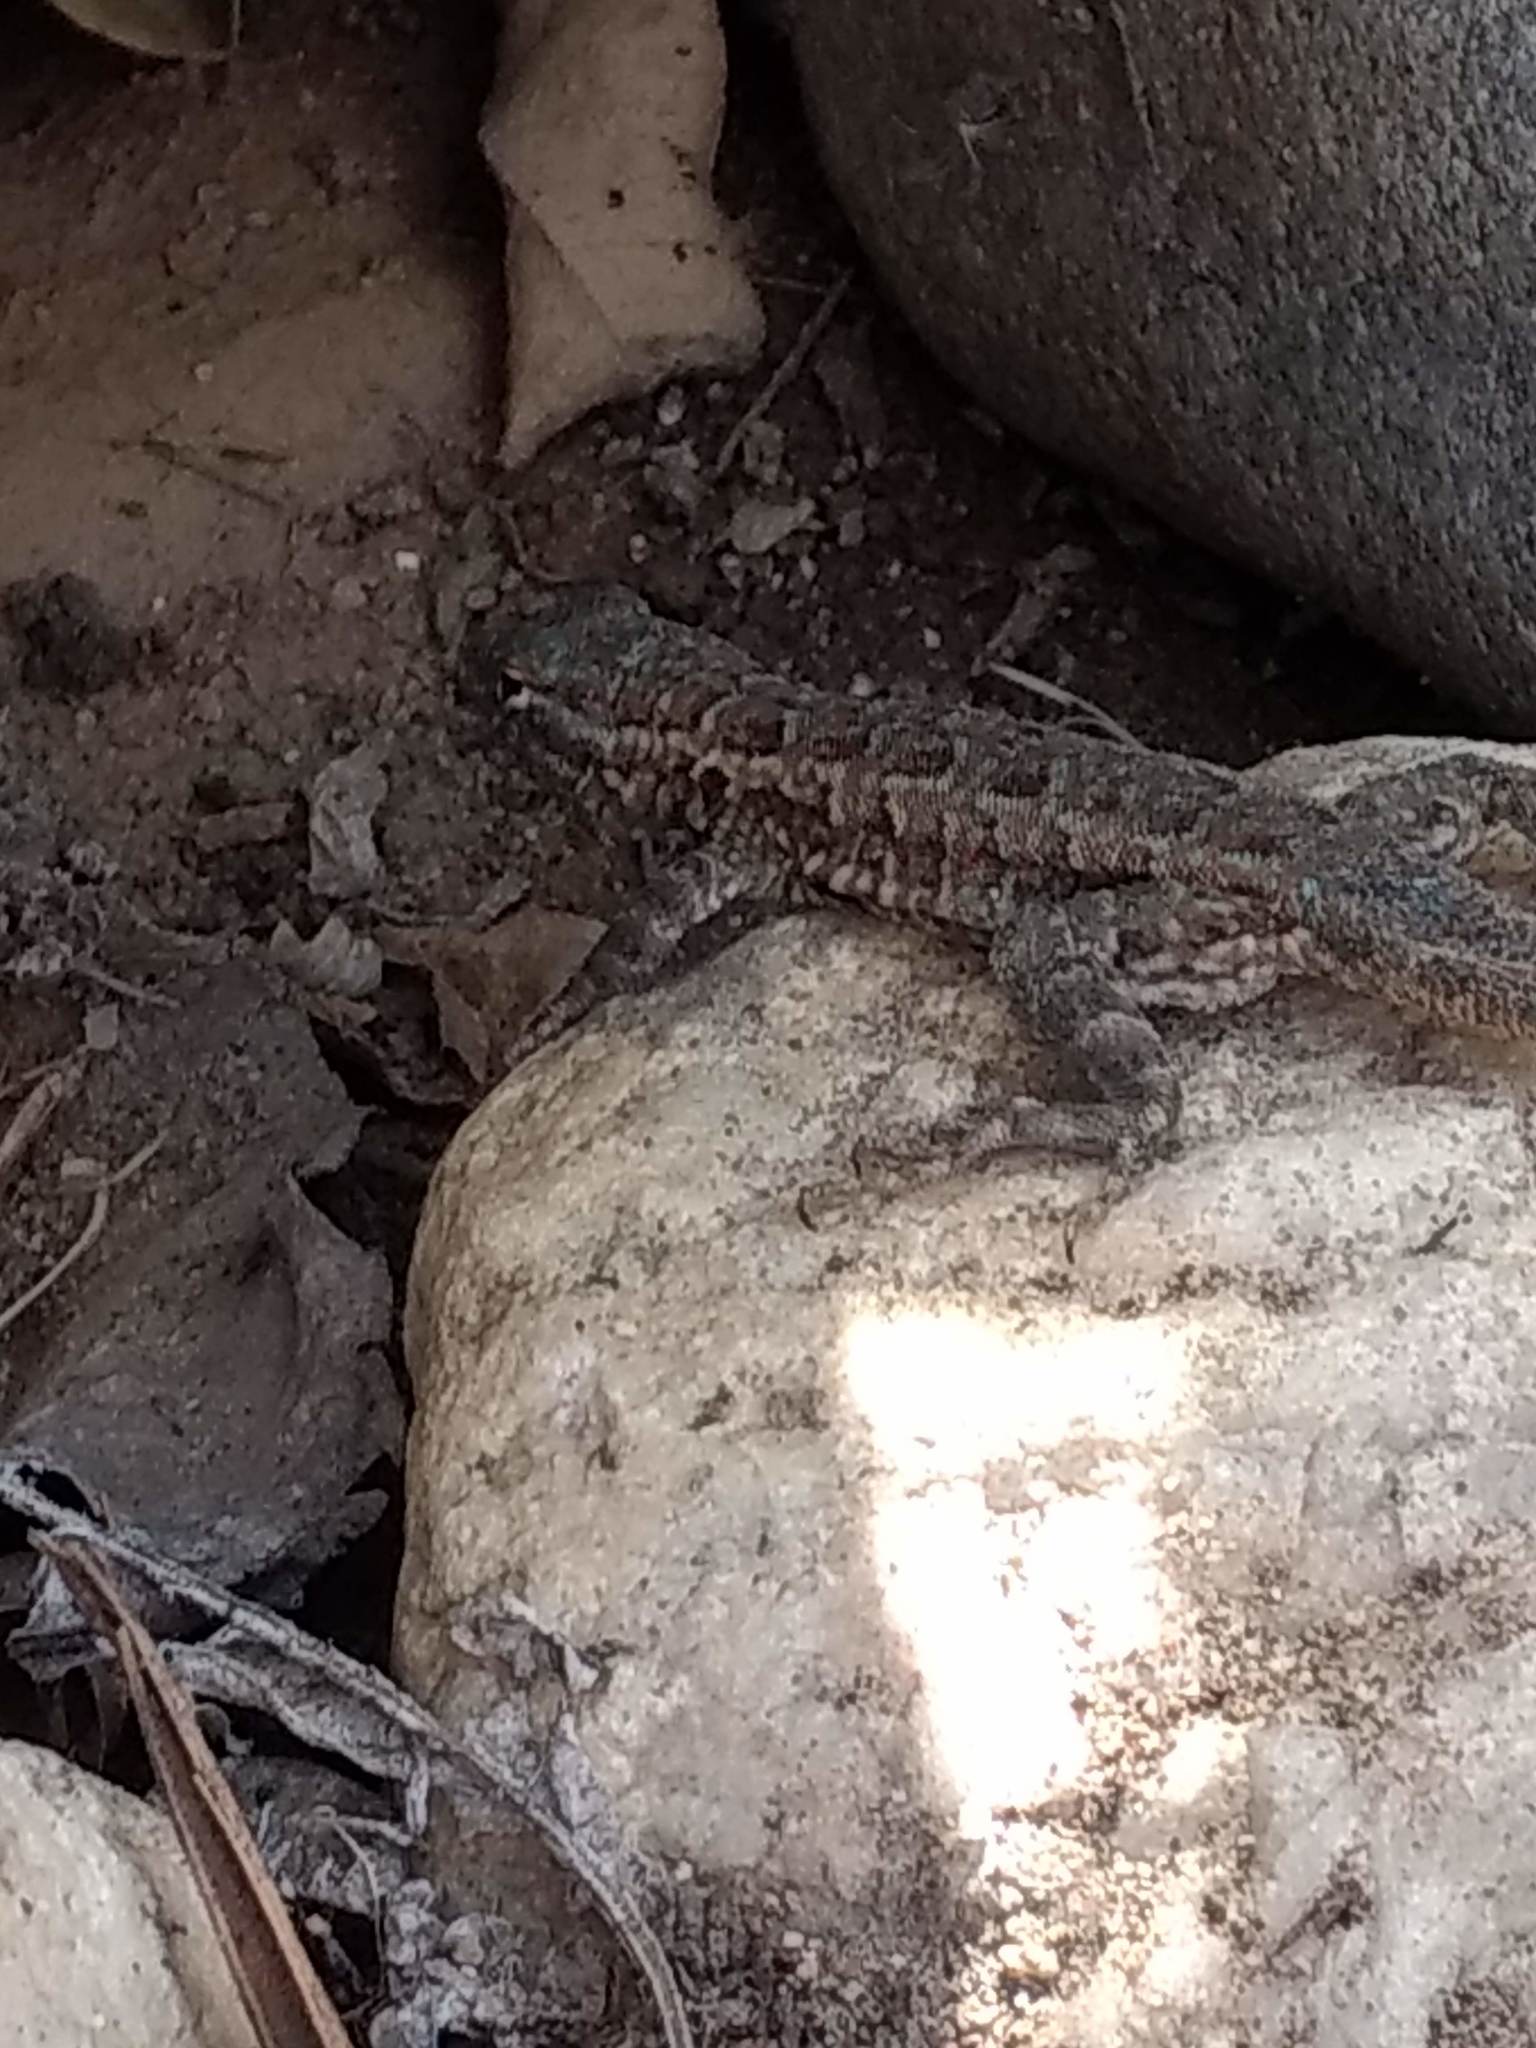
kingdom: Animalia
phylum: Chordata
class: Squamata
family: Phrynosomatidae
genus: Uta
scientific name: Uta stansburiana
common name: Side-blotched lizard
